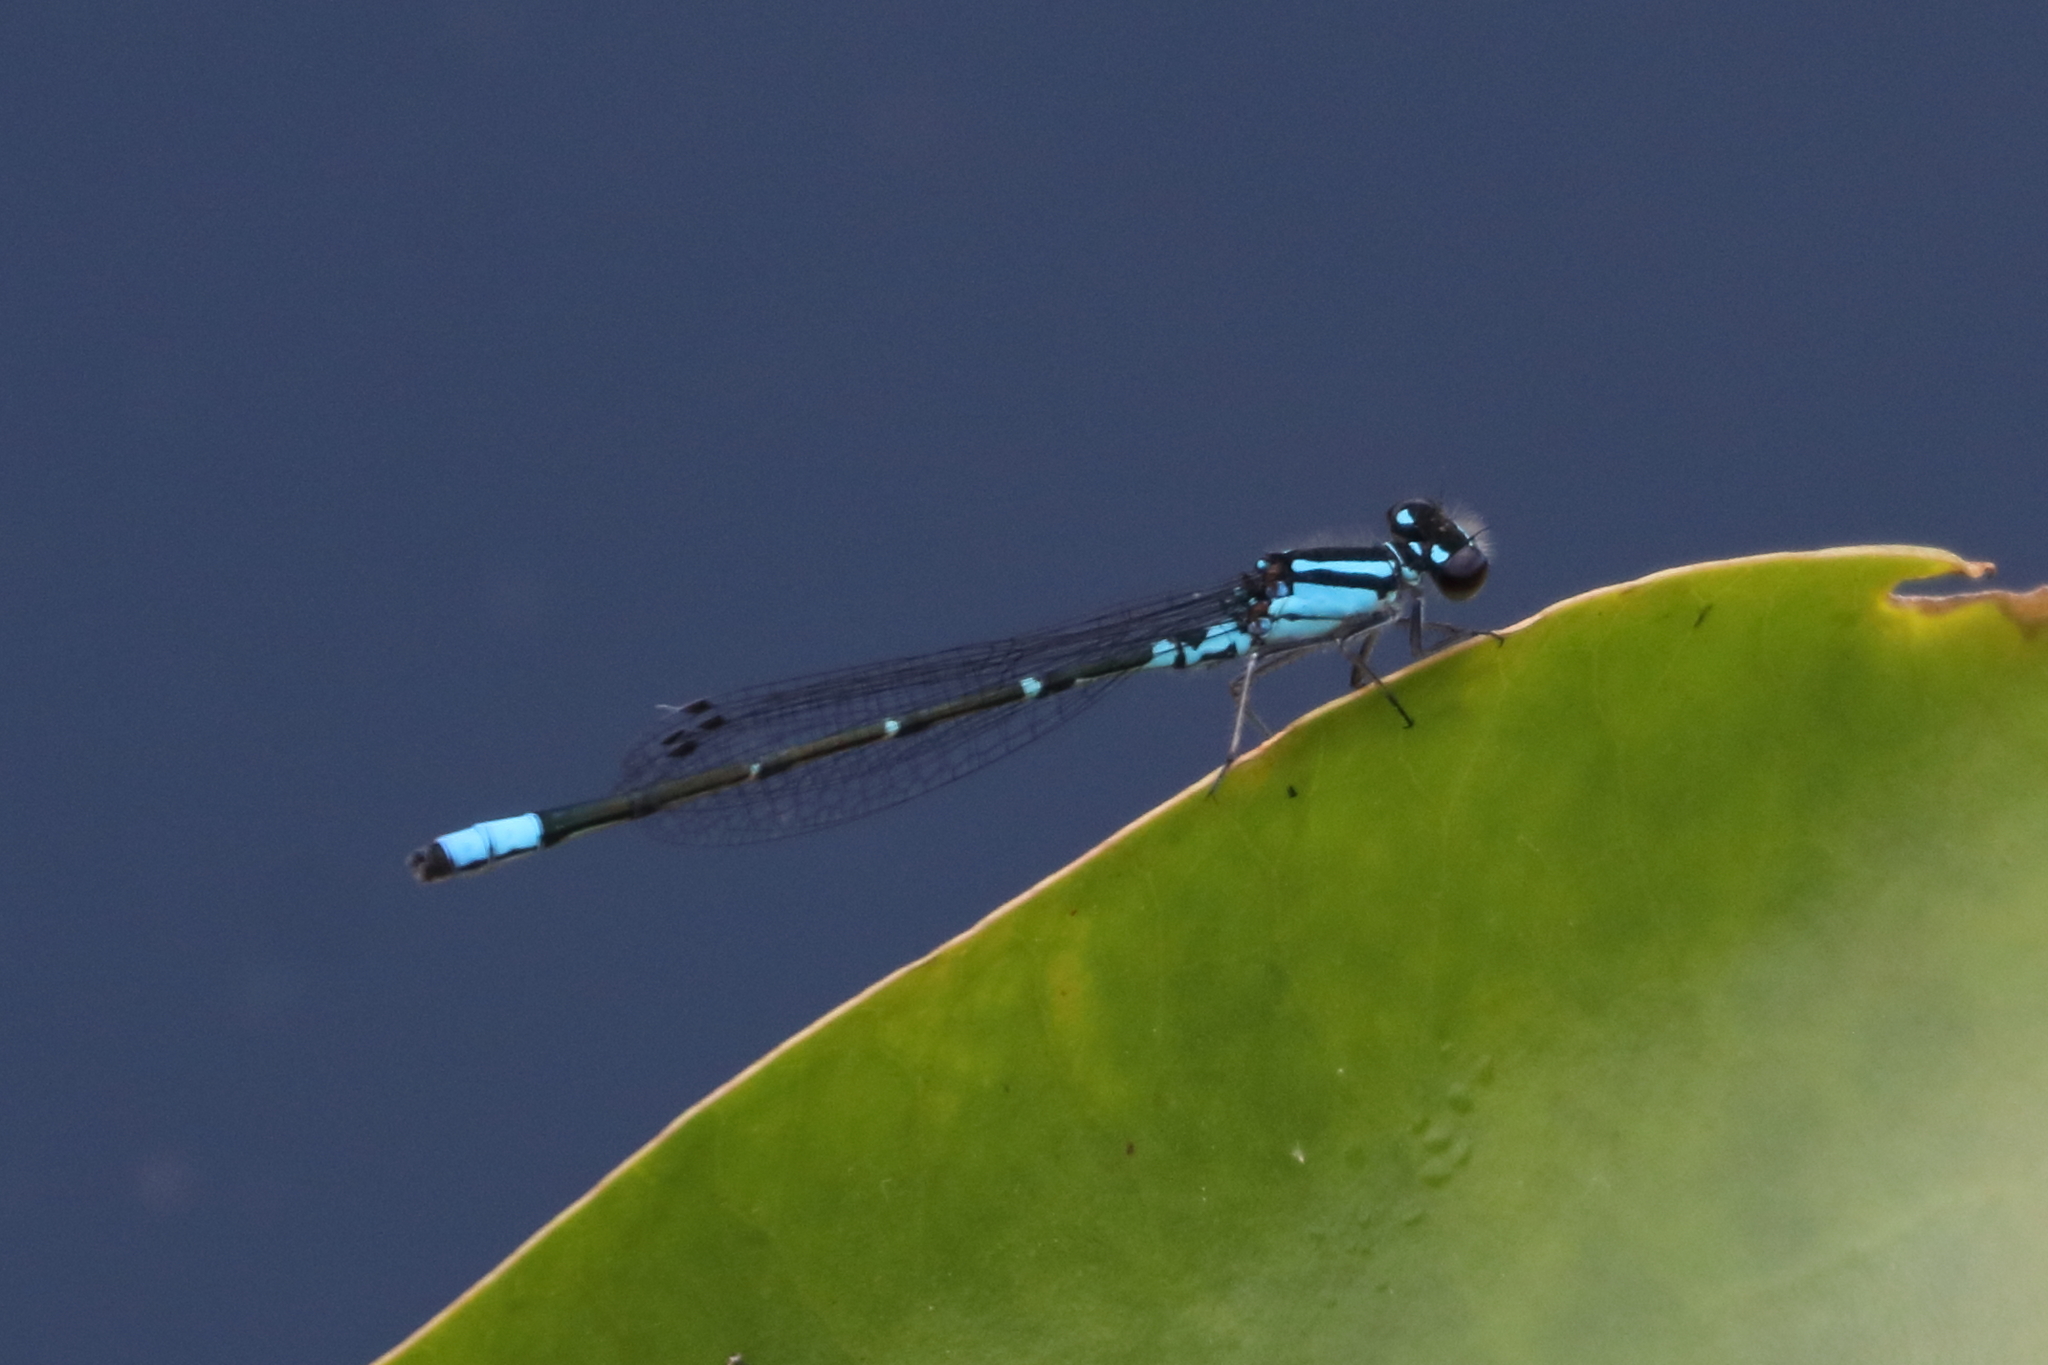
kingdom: Animalia
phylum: Arthropoda
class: Insecta
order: Odonata
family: Coenagrionidae
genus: Enallagma
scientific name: Enallagma geminatum
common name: Skimming bluet
